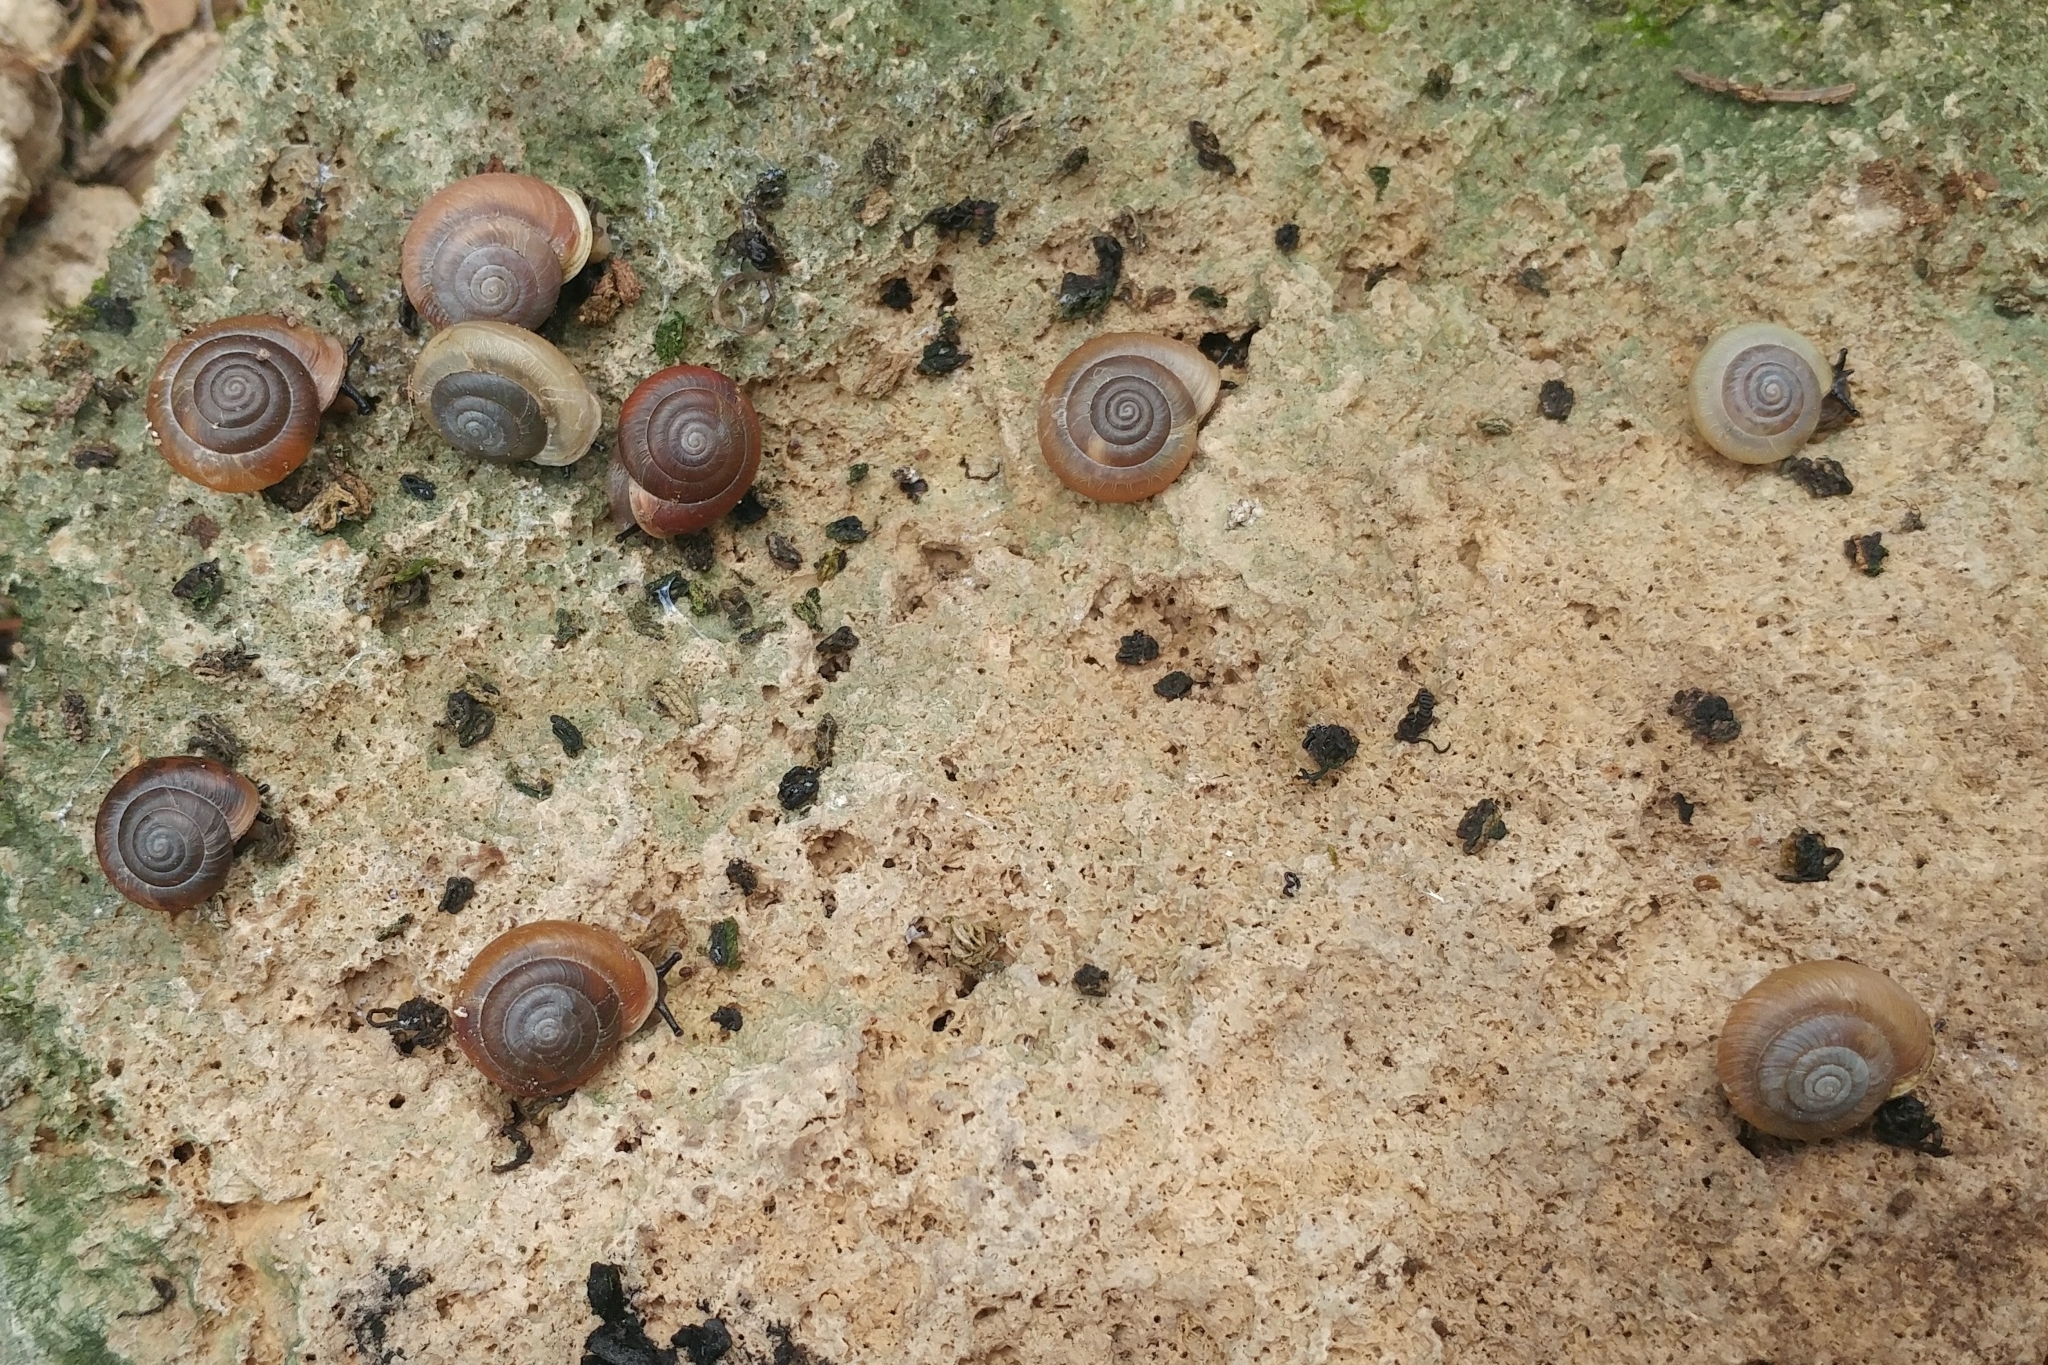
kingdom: Animalia
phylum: Mollusca
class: Gastropoda
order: Stylommatophora
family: Polygyridae
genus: Ashmunella
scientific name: Ashmunella rhyssa
